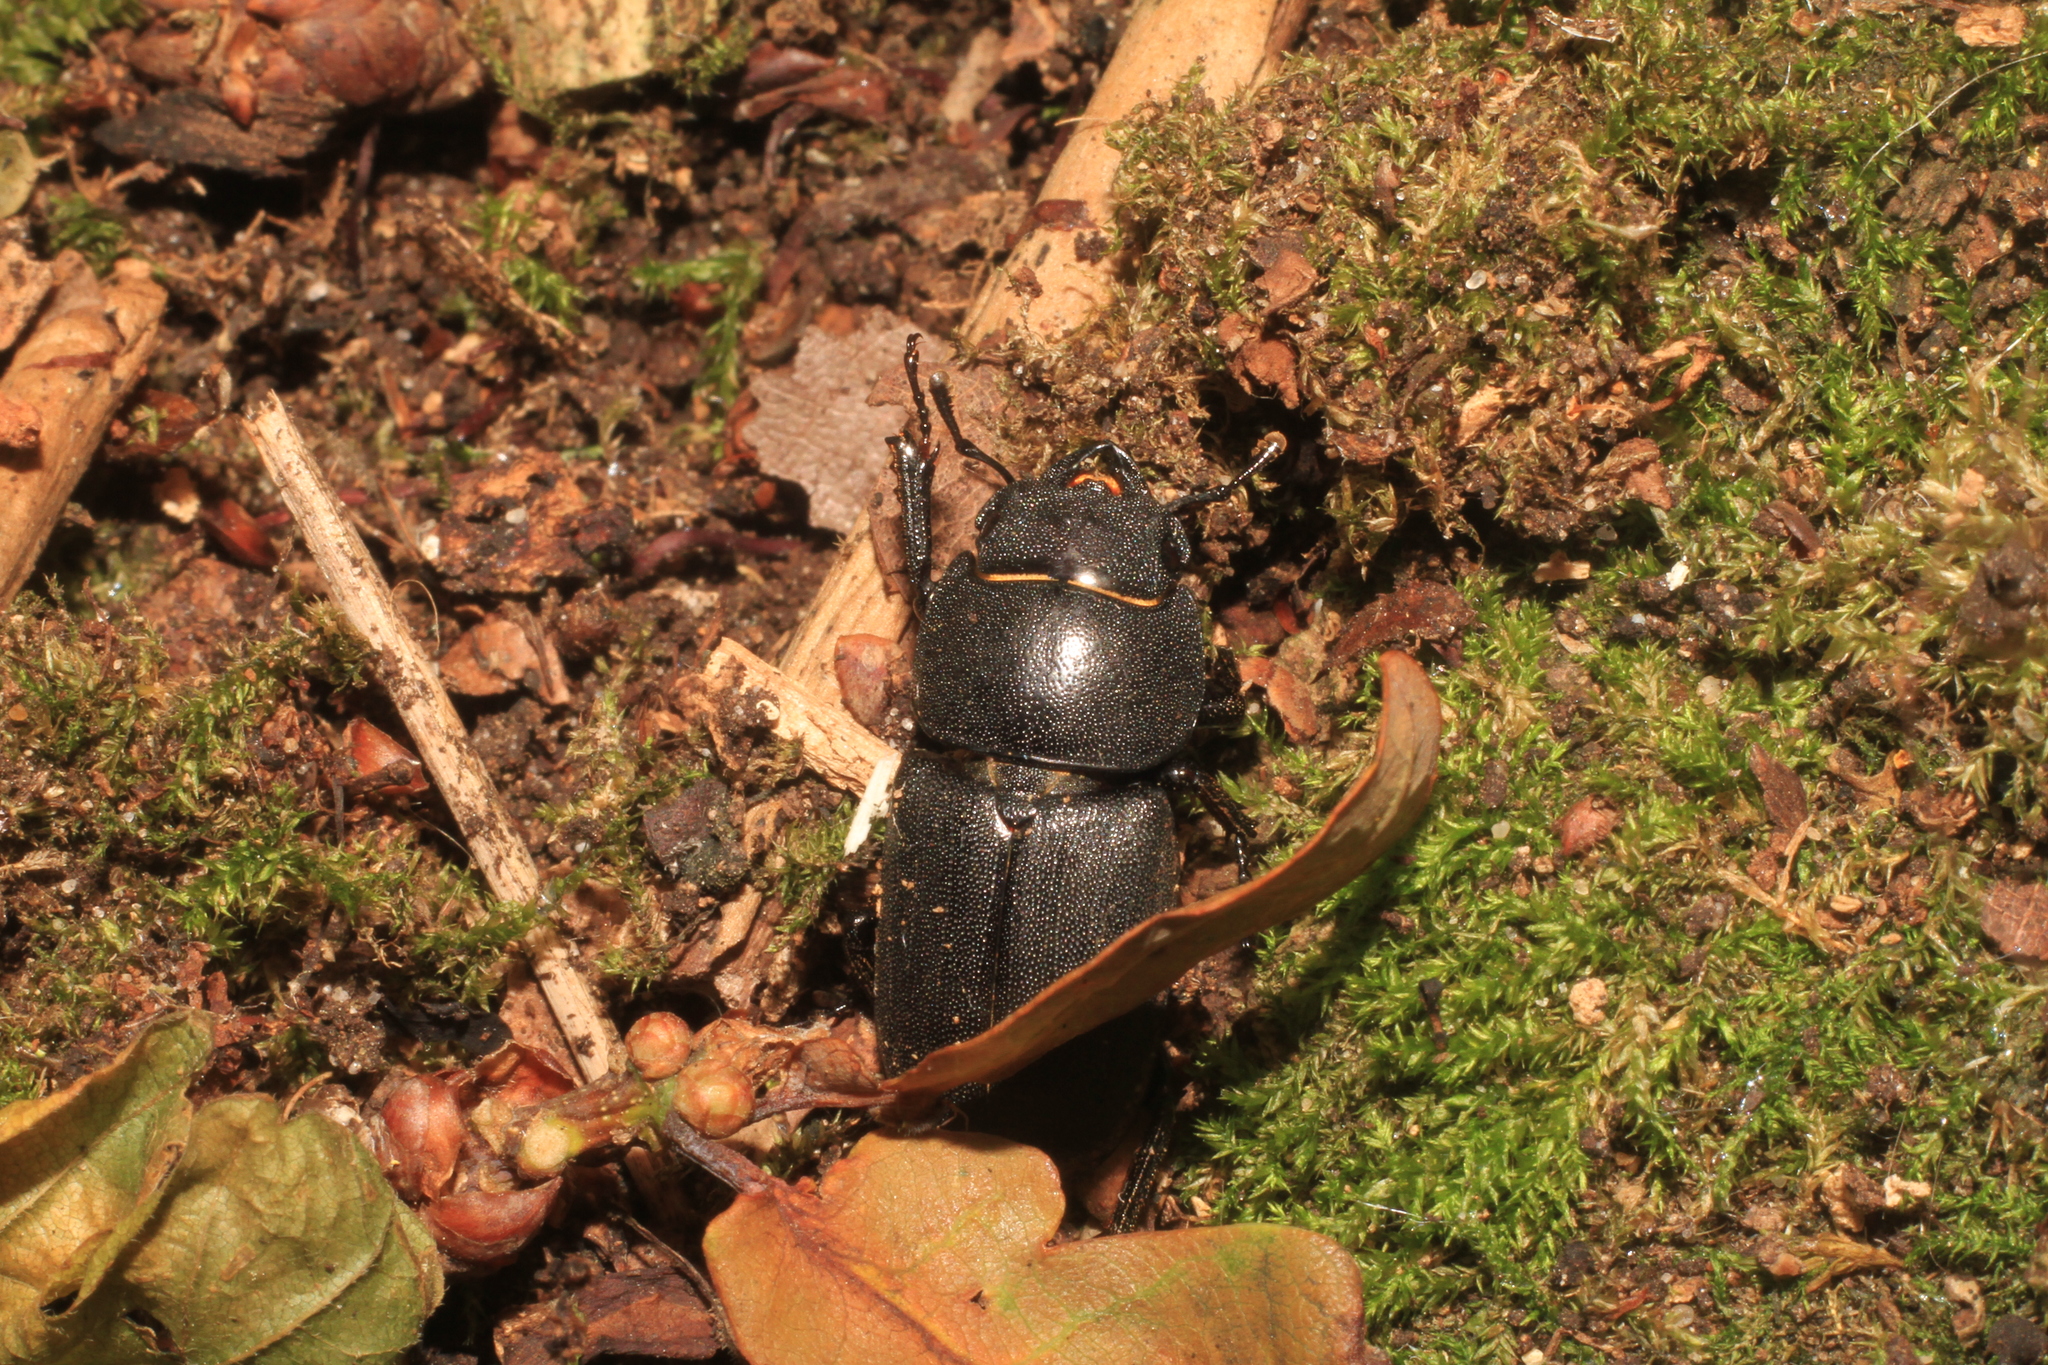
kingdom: Animalia
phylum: Arthropoda
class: Insecta
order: Coleoptera
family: Lucanidae
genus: Dorcus
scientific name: Dorcus parallelipipedus
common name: Lesser stag beetle
